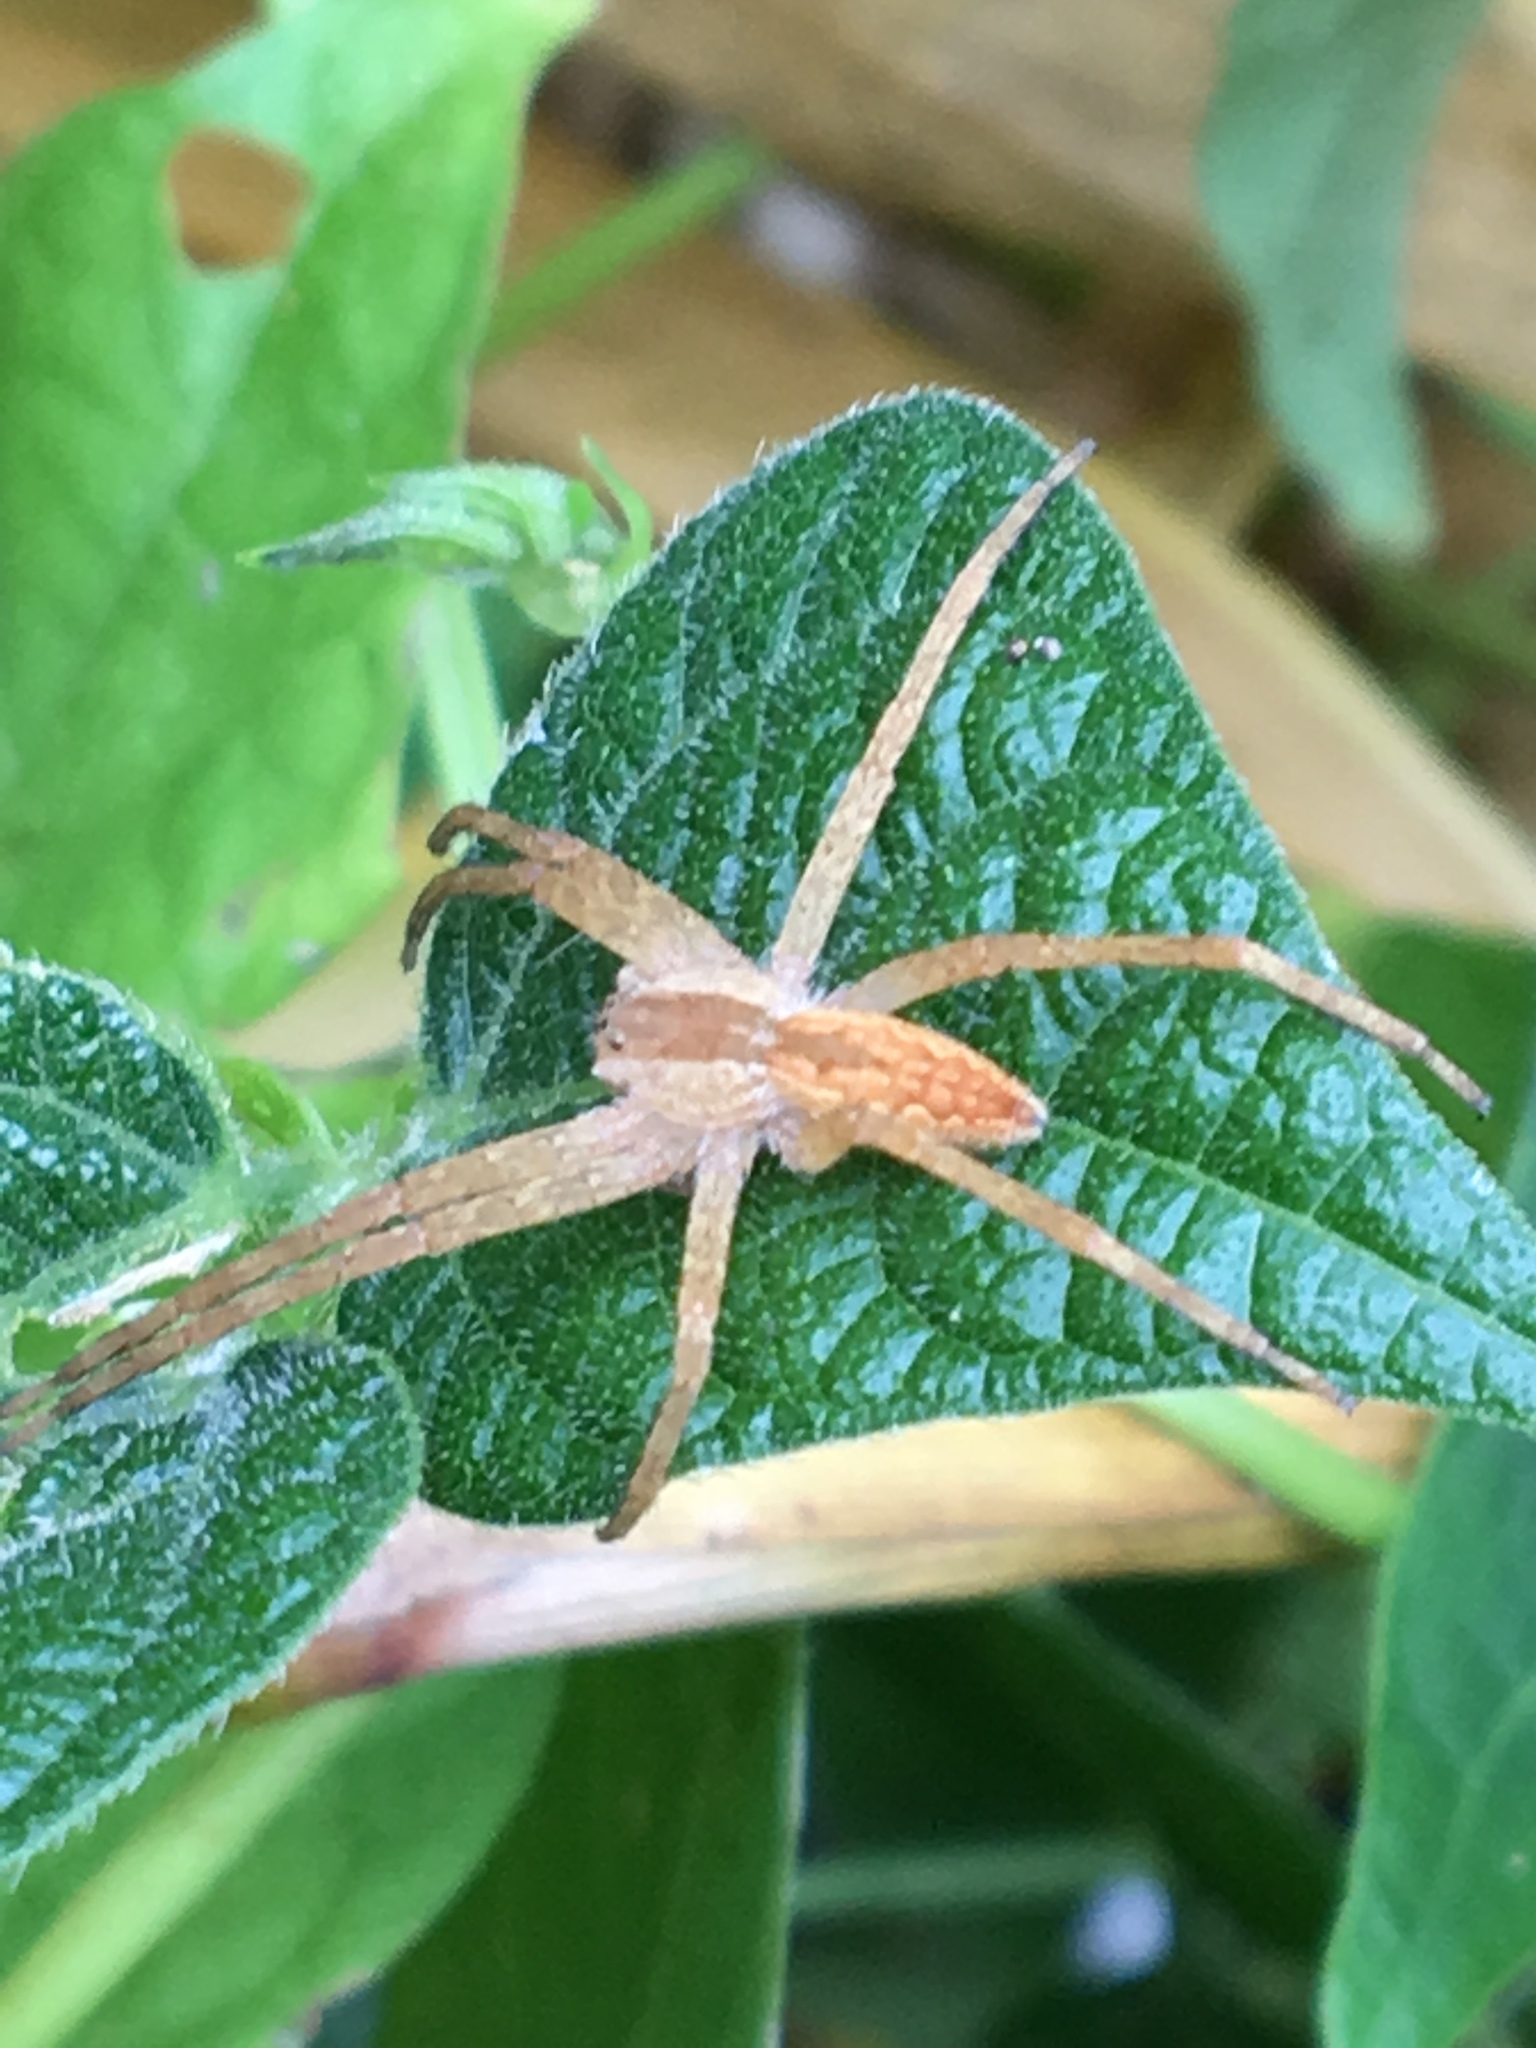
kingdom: Animalia
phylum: Arthropoda
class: Arachnida
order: Araneae
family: Pisauridae
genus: Pisaurina
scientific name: Pisaurina mira
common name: American nursery web spider
